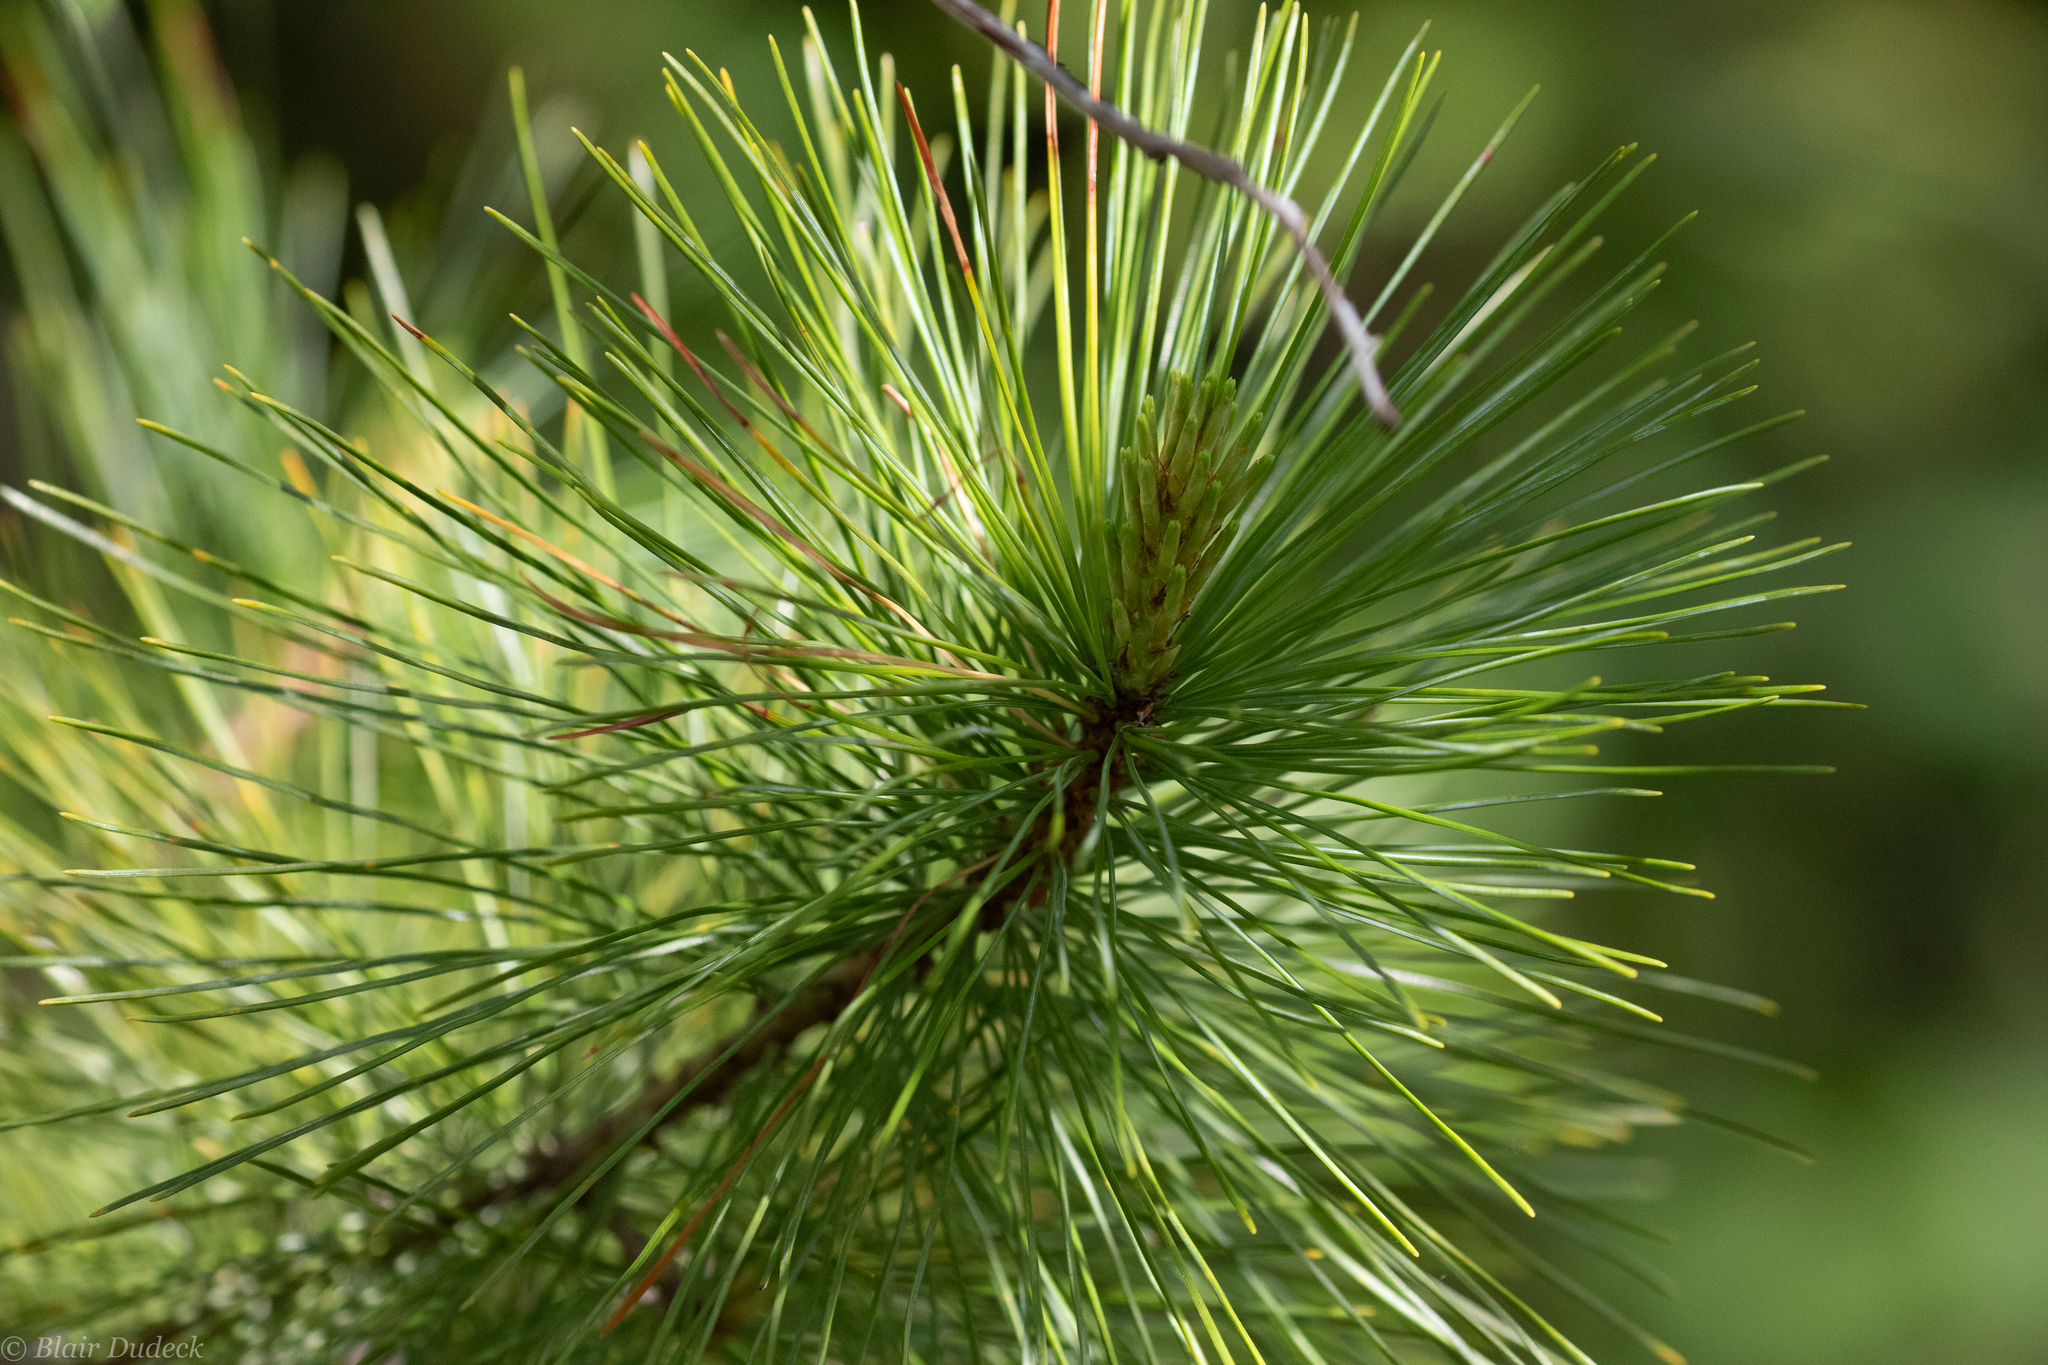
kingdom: Plantae
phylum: Tracheophyta
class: Pinopsida
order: Pinales
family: Pinaceae
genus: Pinus
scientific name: Pinus monticola
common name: Western white pine
